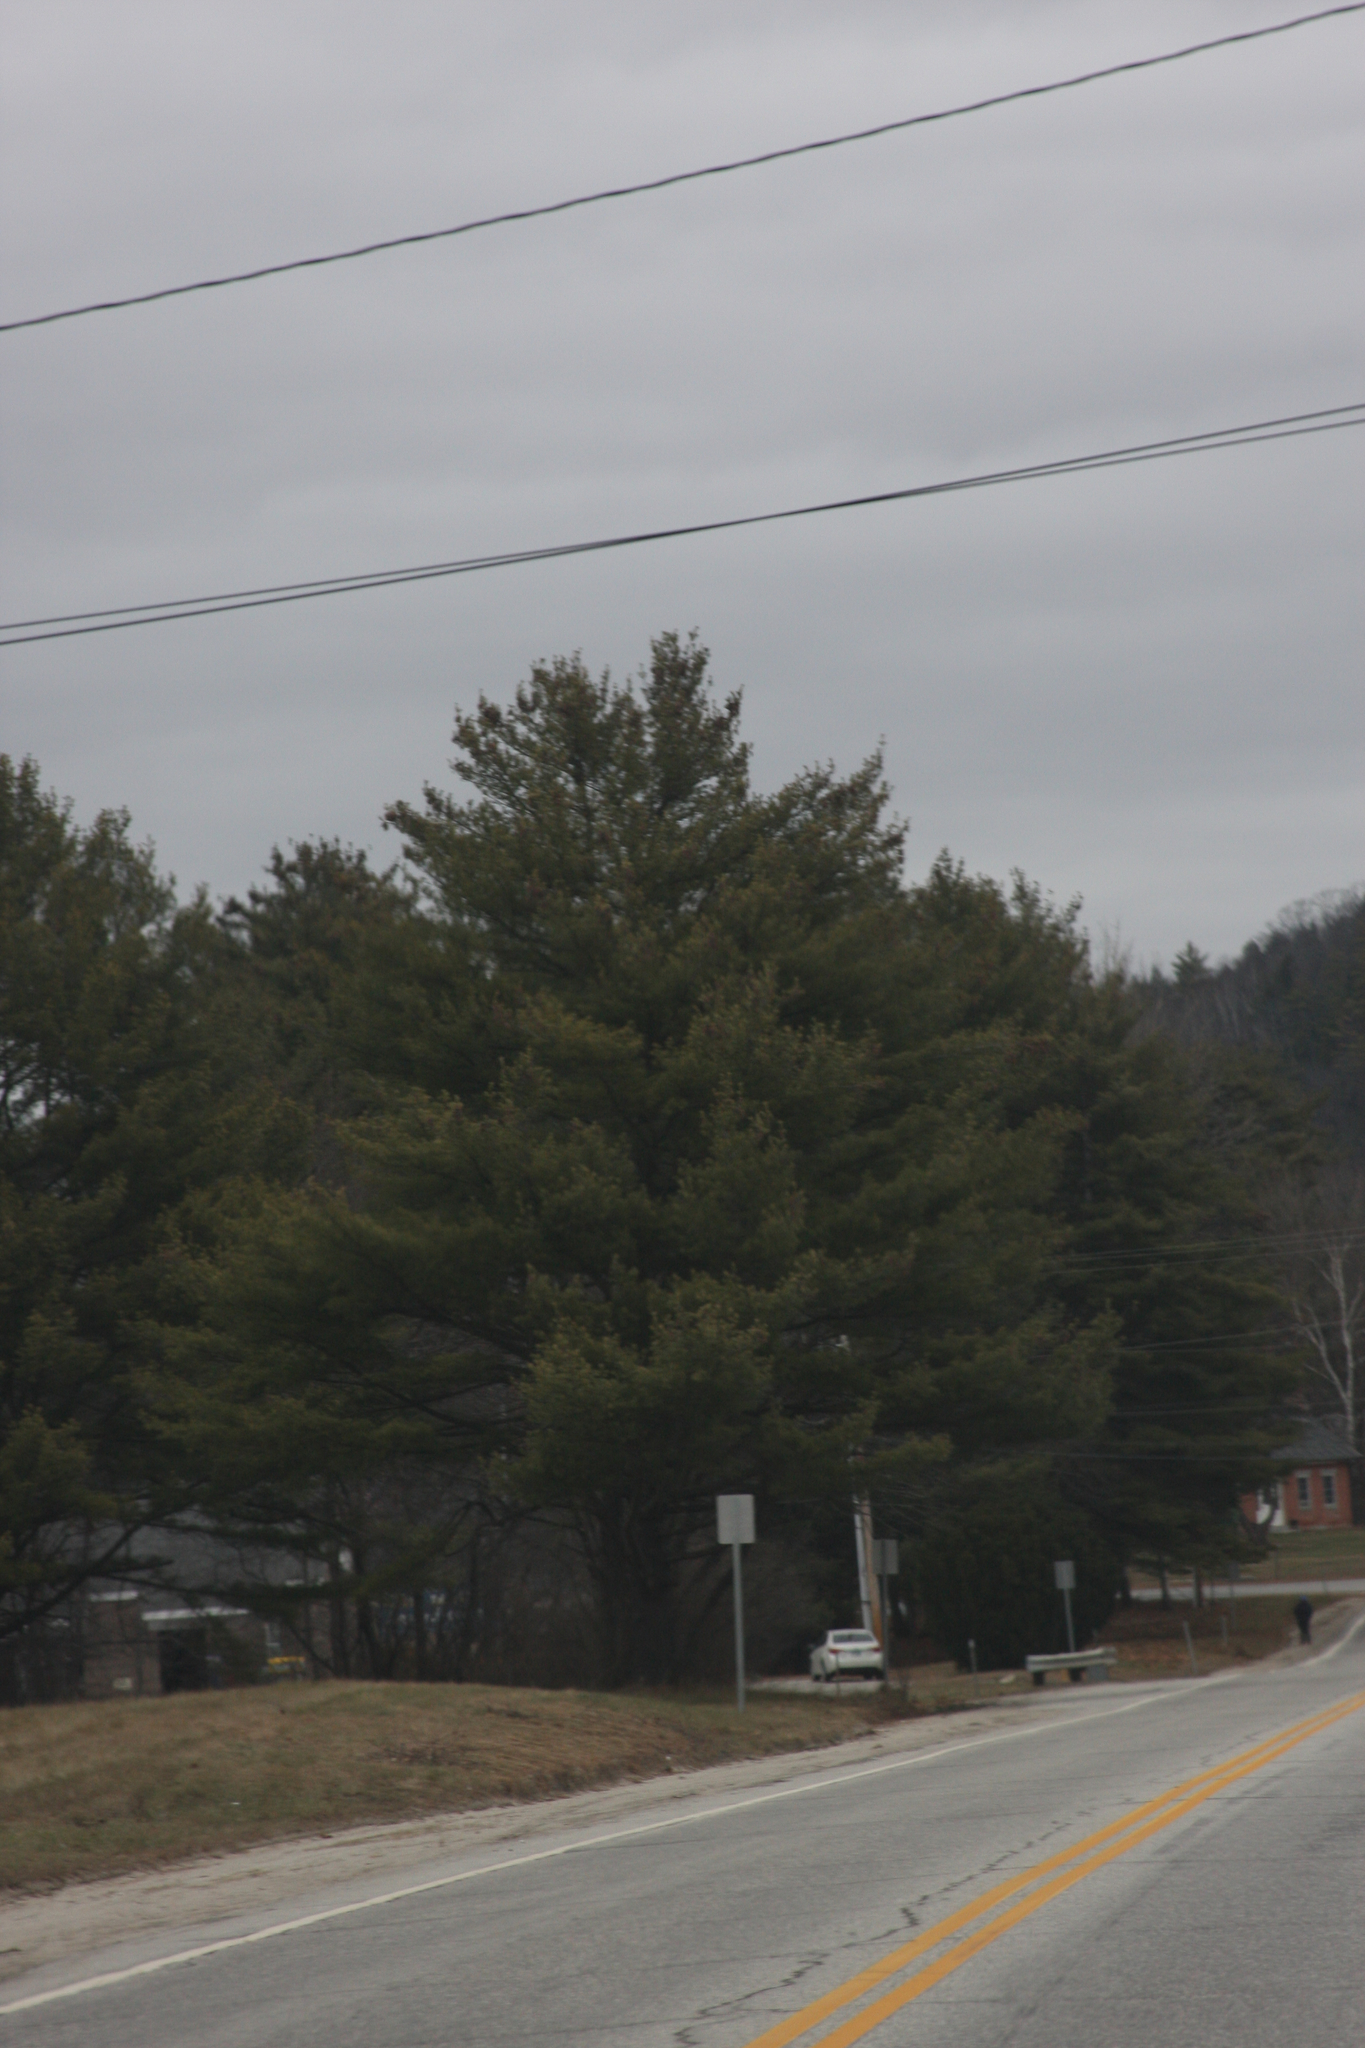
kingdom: Plantae
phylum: Tracheophyta
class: Pinopsida
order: Pinales
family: Pinaceae
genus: Pinus
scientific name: Pinus strobus
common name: Weymouth pine
